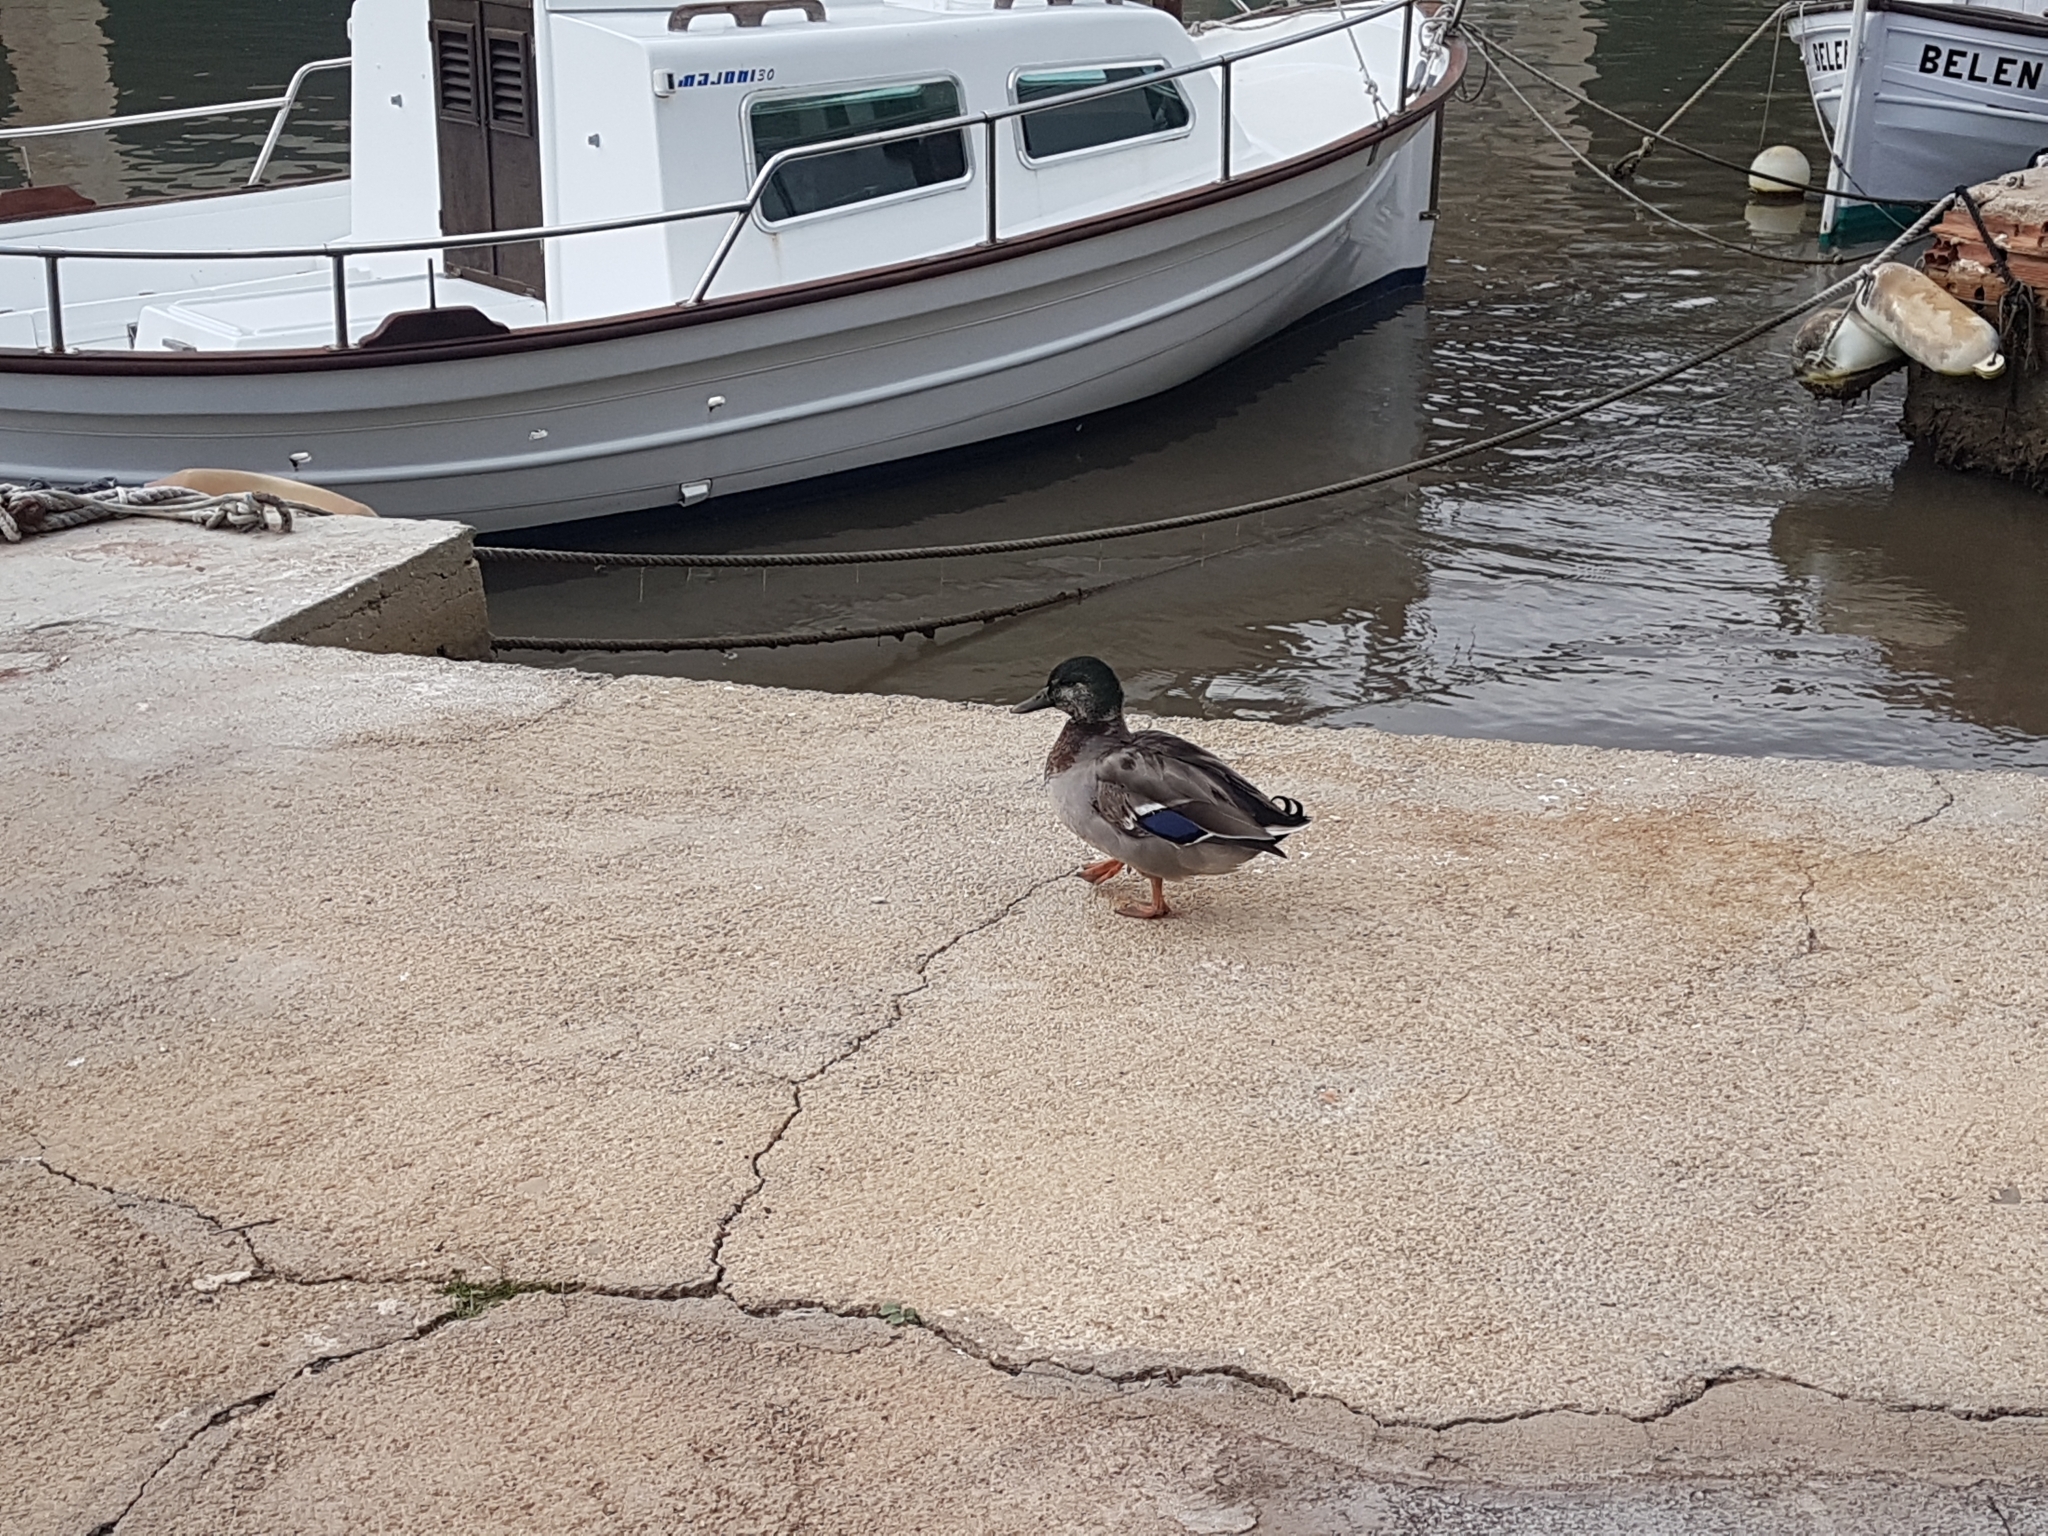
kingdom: Animalia
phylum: Chordata
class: Aves
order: Anseriformes
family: Anatidae
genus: Anas
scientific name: Anas platyrhynchos
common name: Mallard
